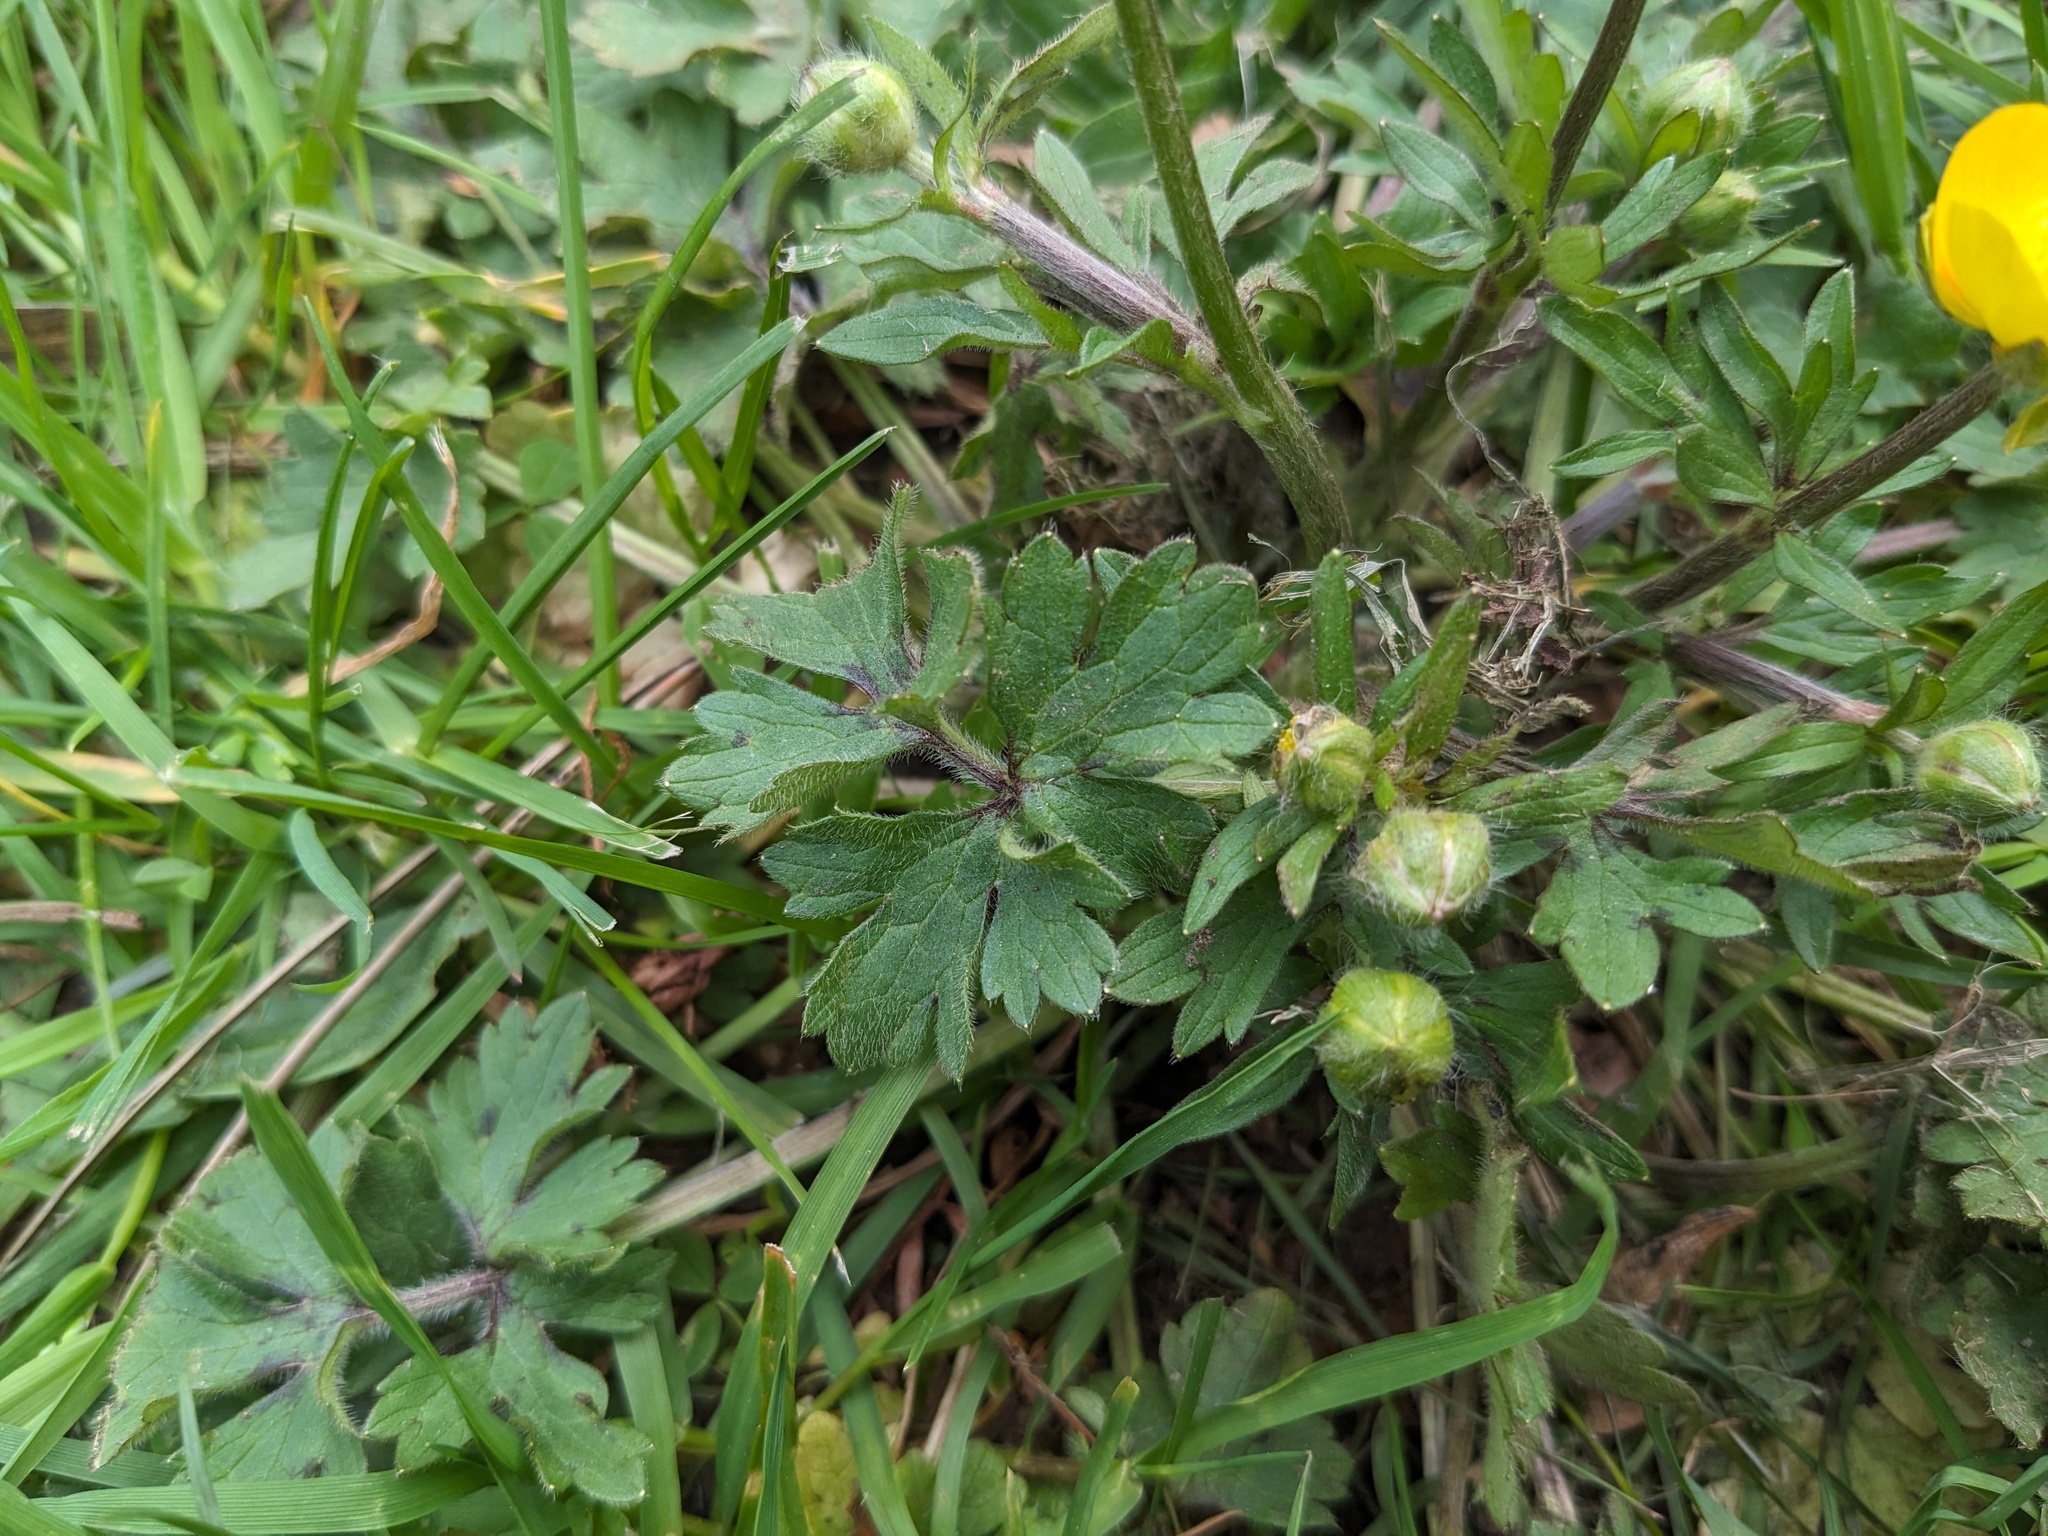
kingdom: Plantae
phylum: Tracheophyta
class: Magnoliopsida
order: Ranunculales
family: Ranunculaceae
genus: Ranunculus
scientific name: Ranunculus bulbosus
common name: Bulbous buttercup
